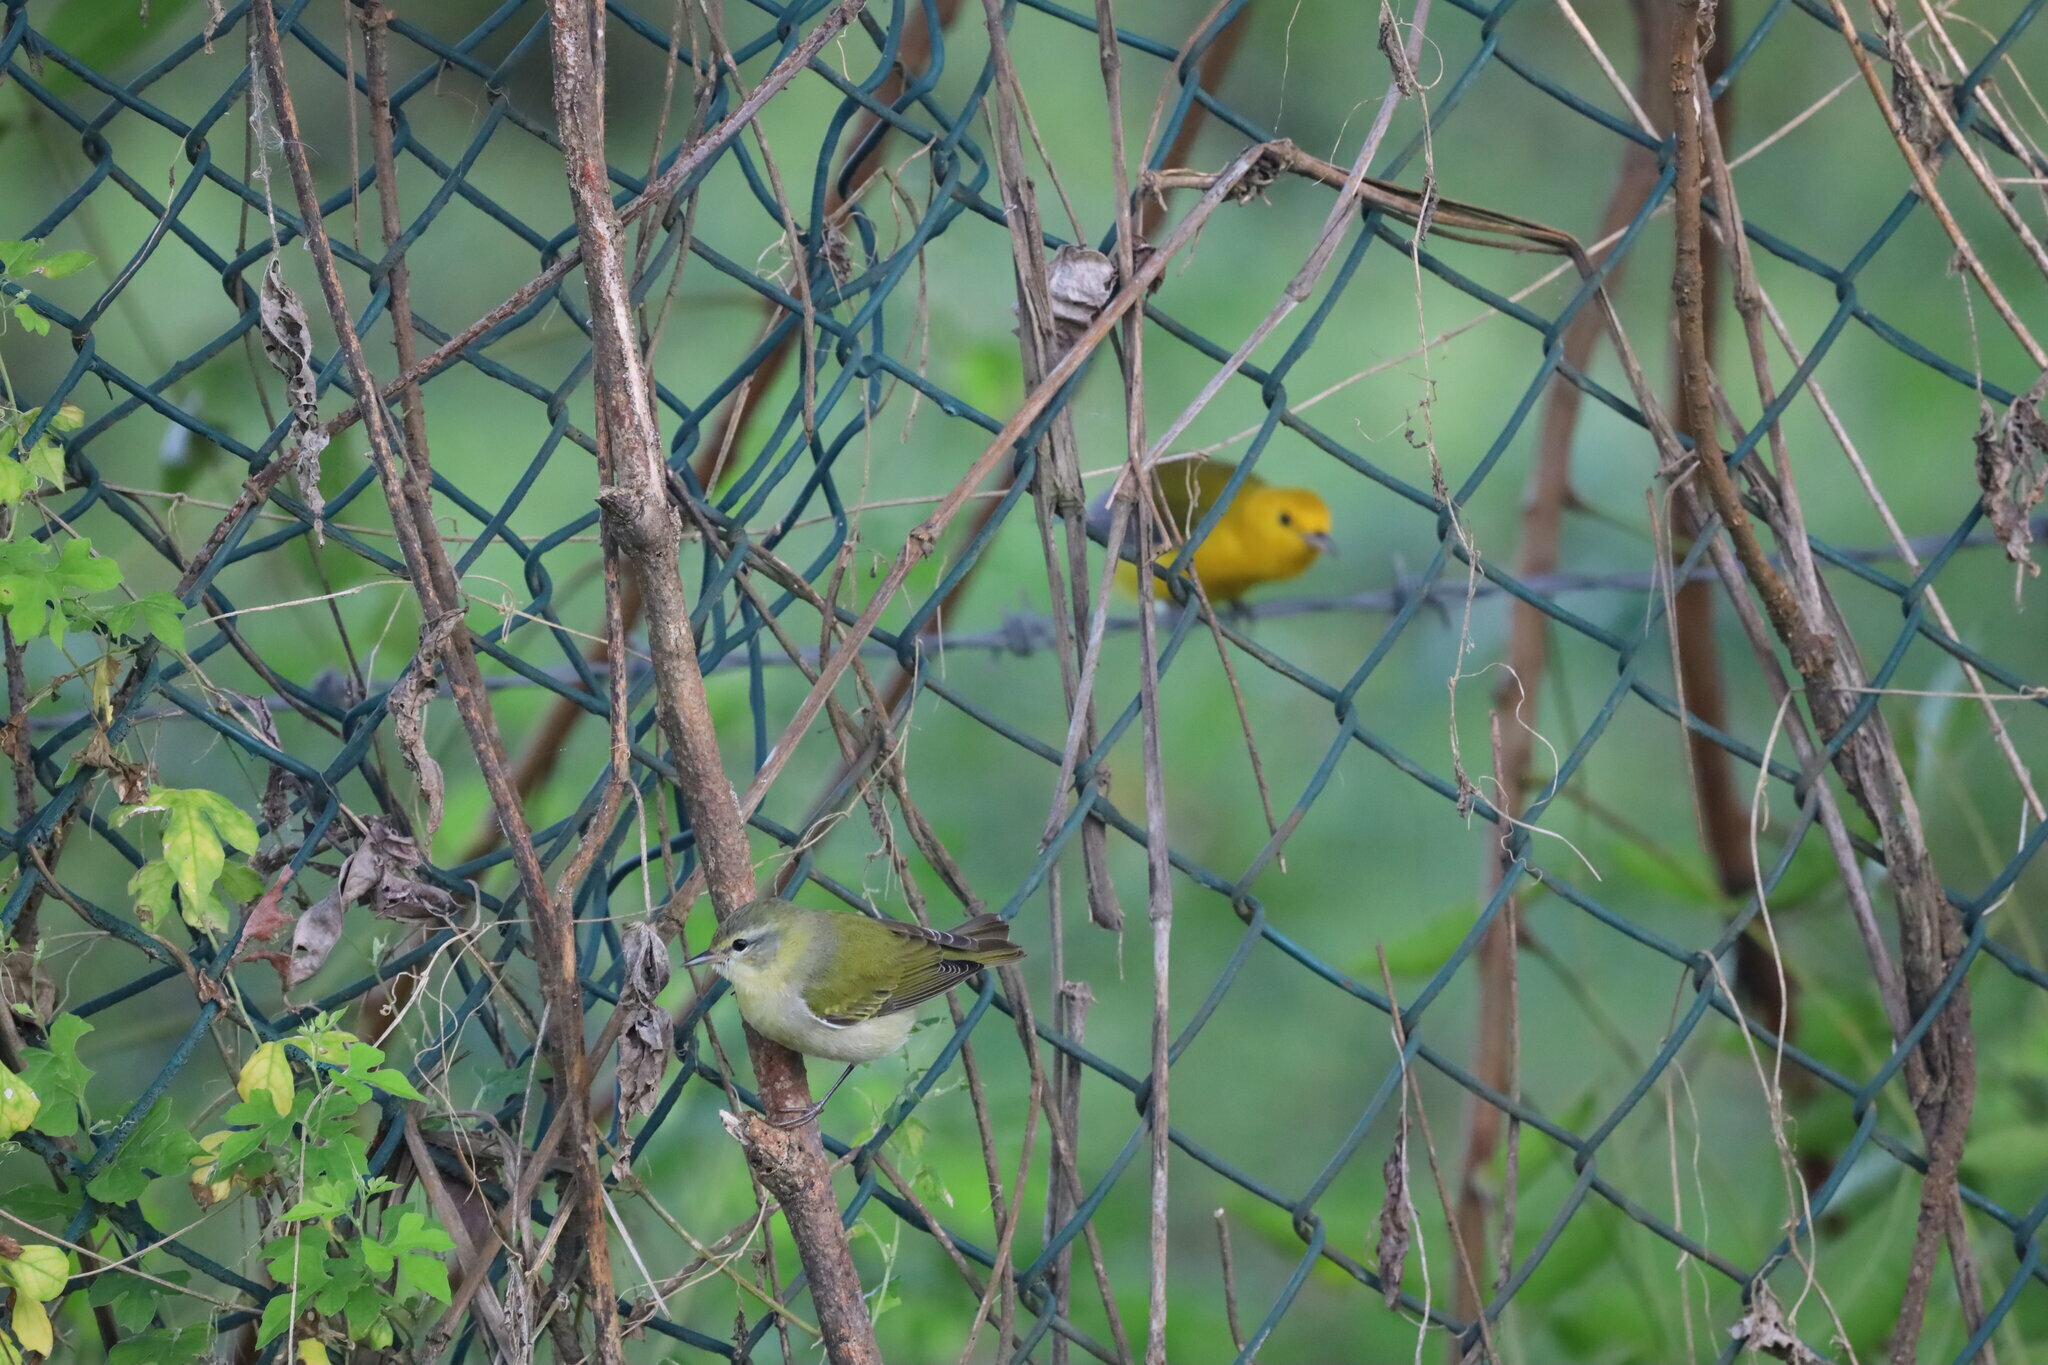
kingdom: Animalia
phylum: Chordata
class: Aves
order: Passeriformes
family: Parulidae
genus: Protonotaria
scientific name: Protonotaria citrea
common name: Prothonotary warbler
